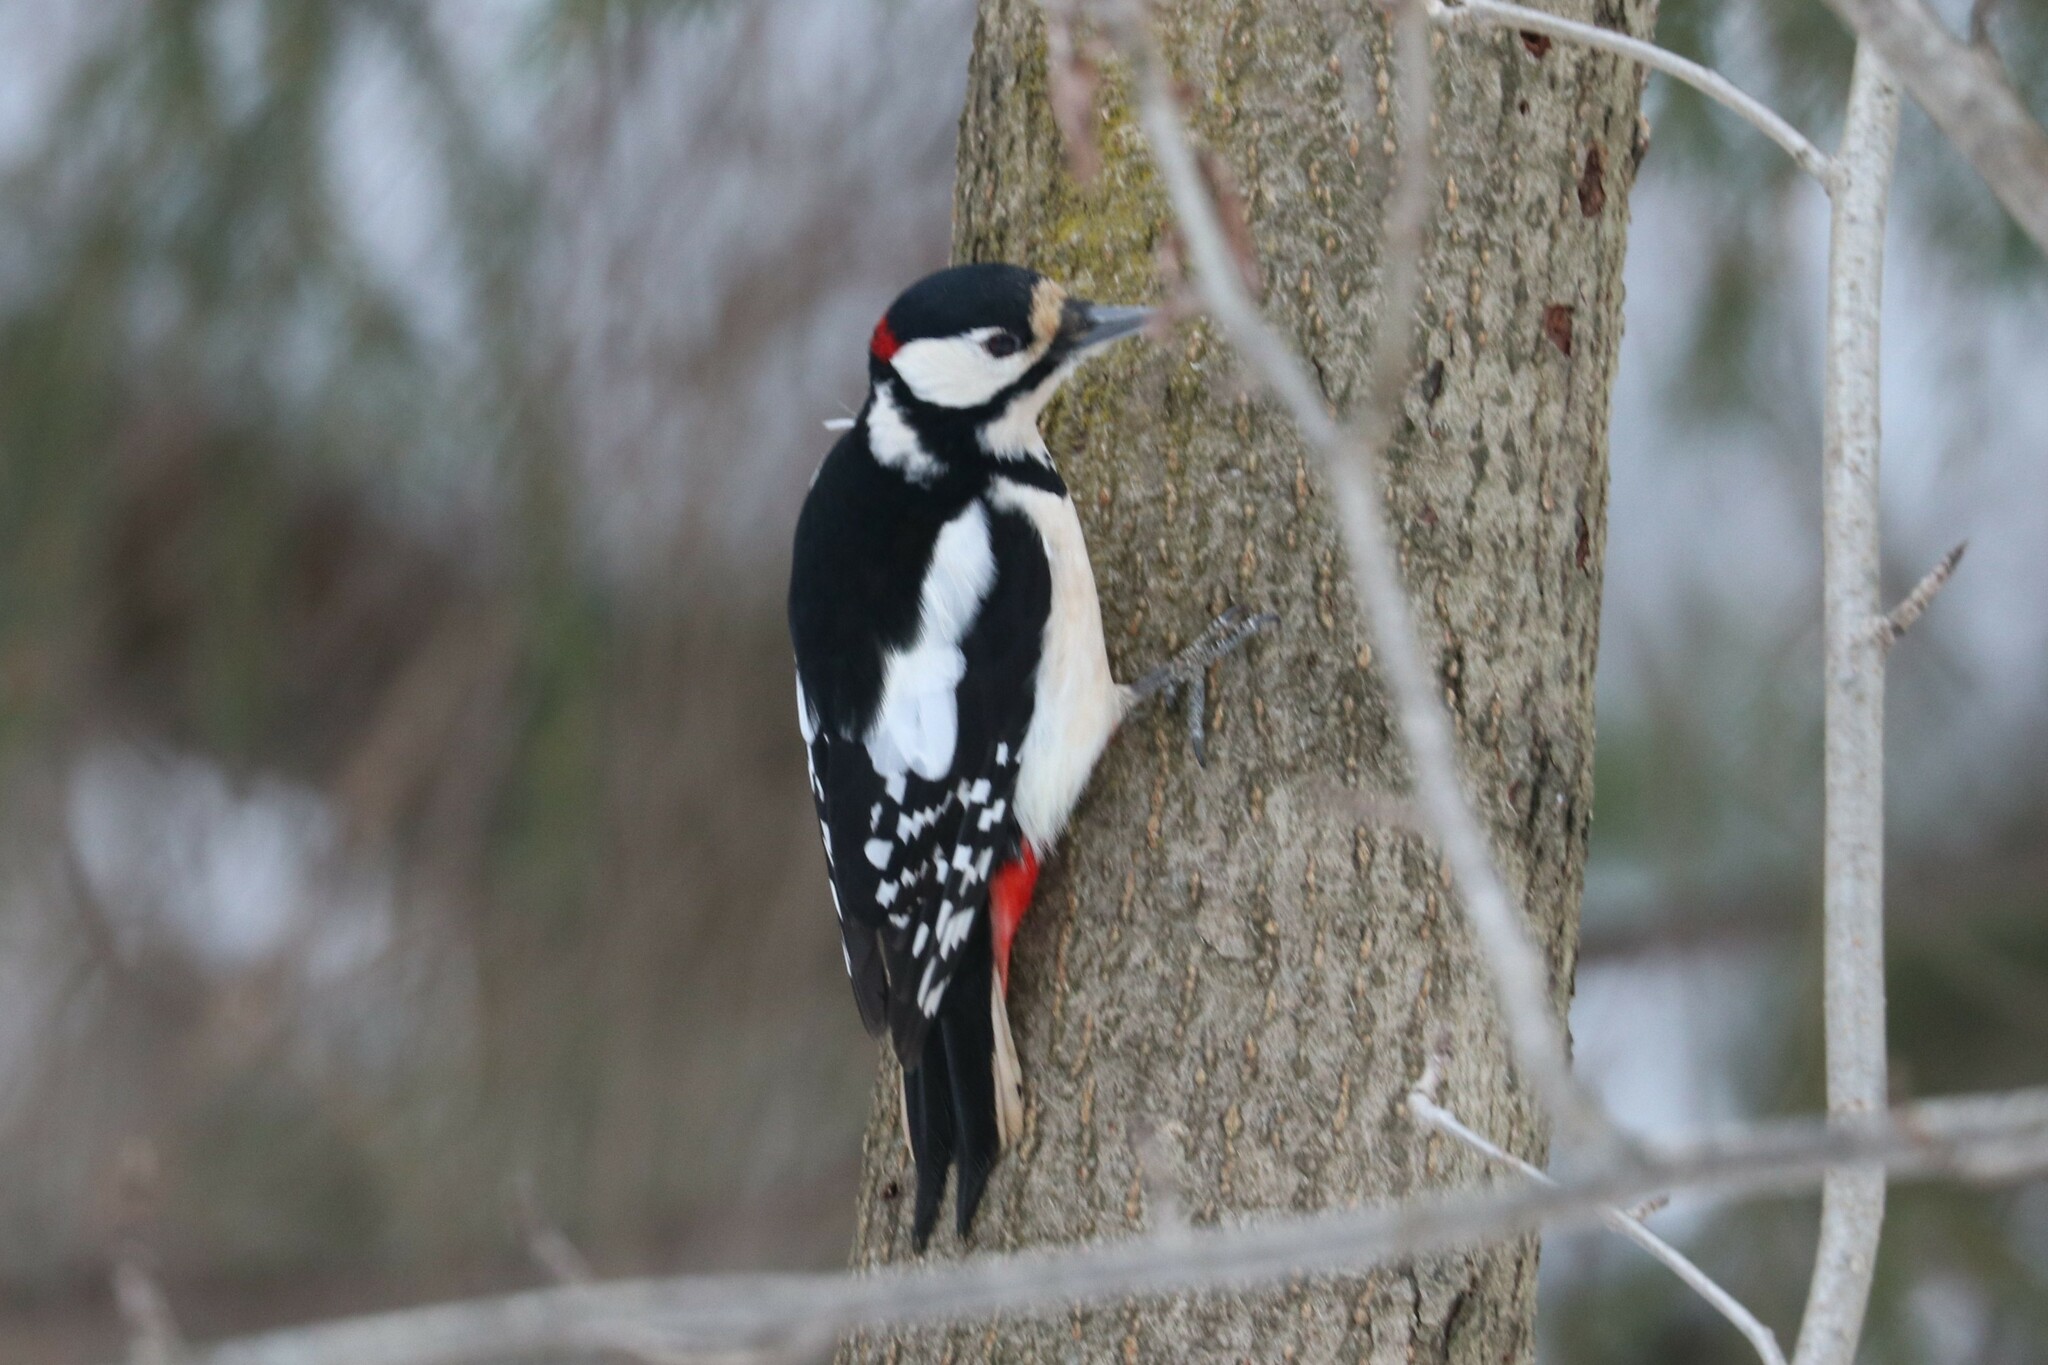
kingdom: Animalia
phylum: Chordata
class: Aves
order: Piciformes
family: Picidae
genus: Dendrocopos
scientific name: Dendrocopos major
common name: Great spotted woodpecker
